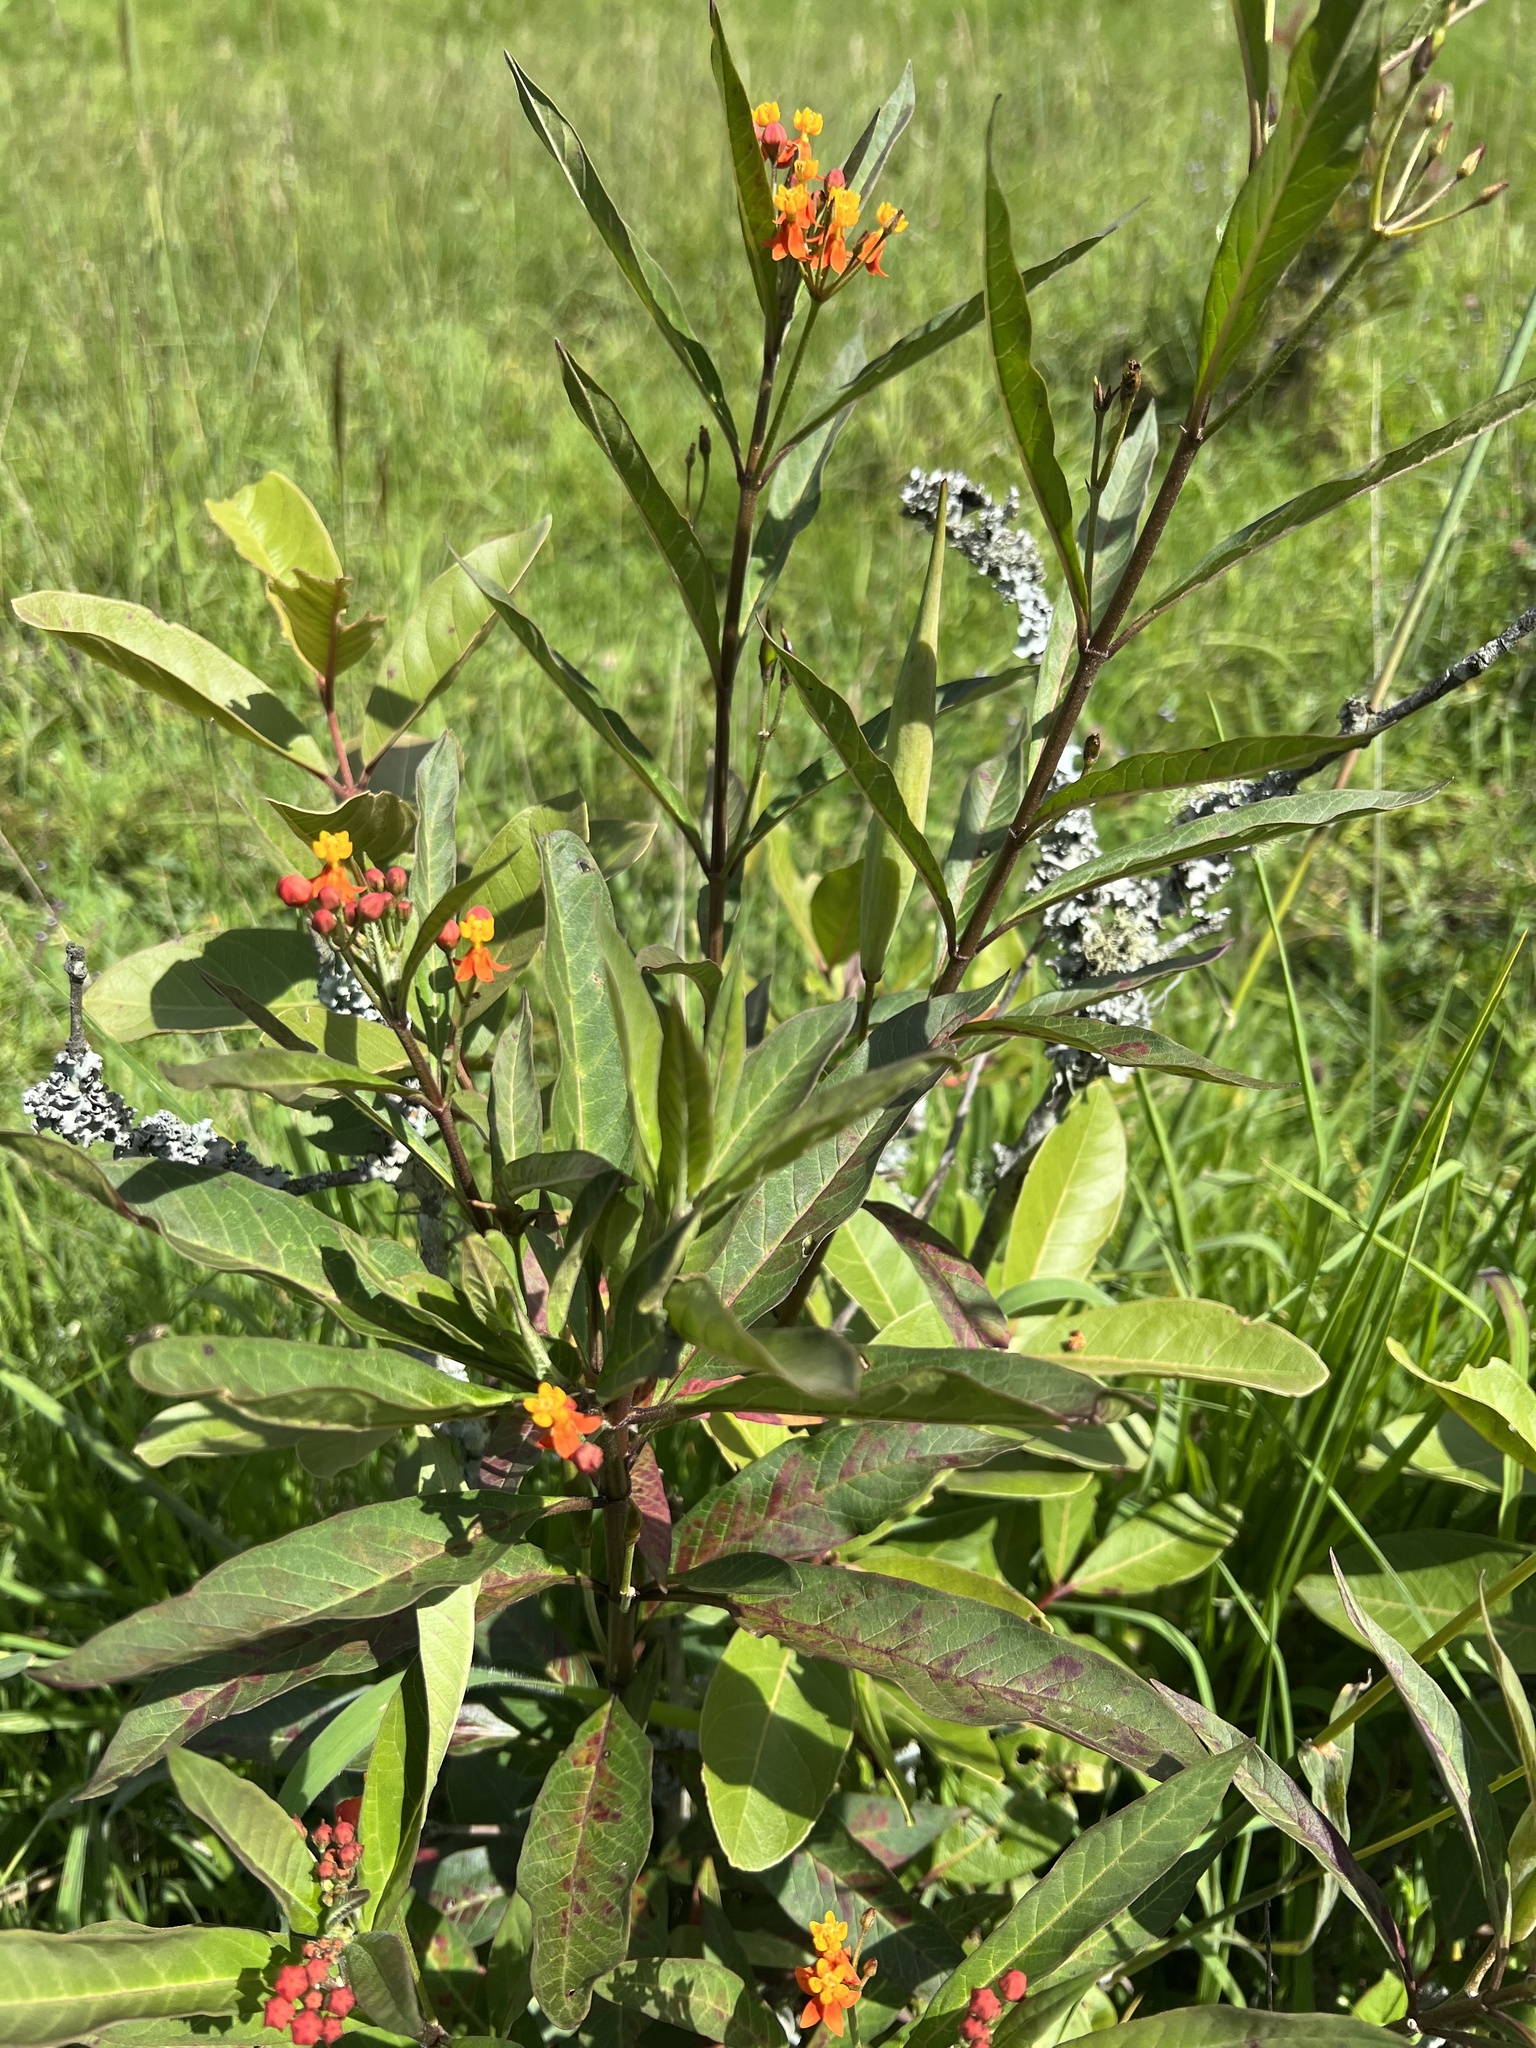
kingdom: Plantae
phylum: Tracheophyta
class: Magnoliopsida
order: Gentianales
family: Apocynaceae
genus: Asclepias
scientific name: Asclepias curassavica
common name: Bloodflower
